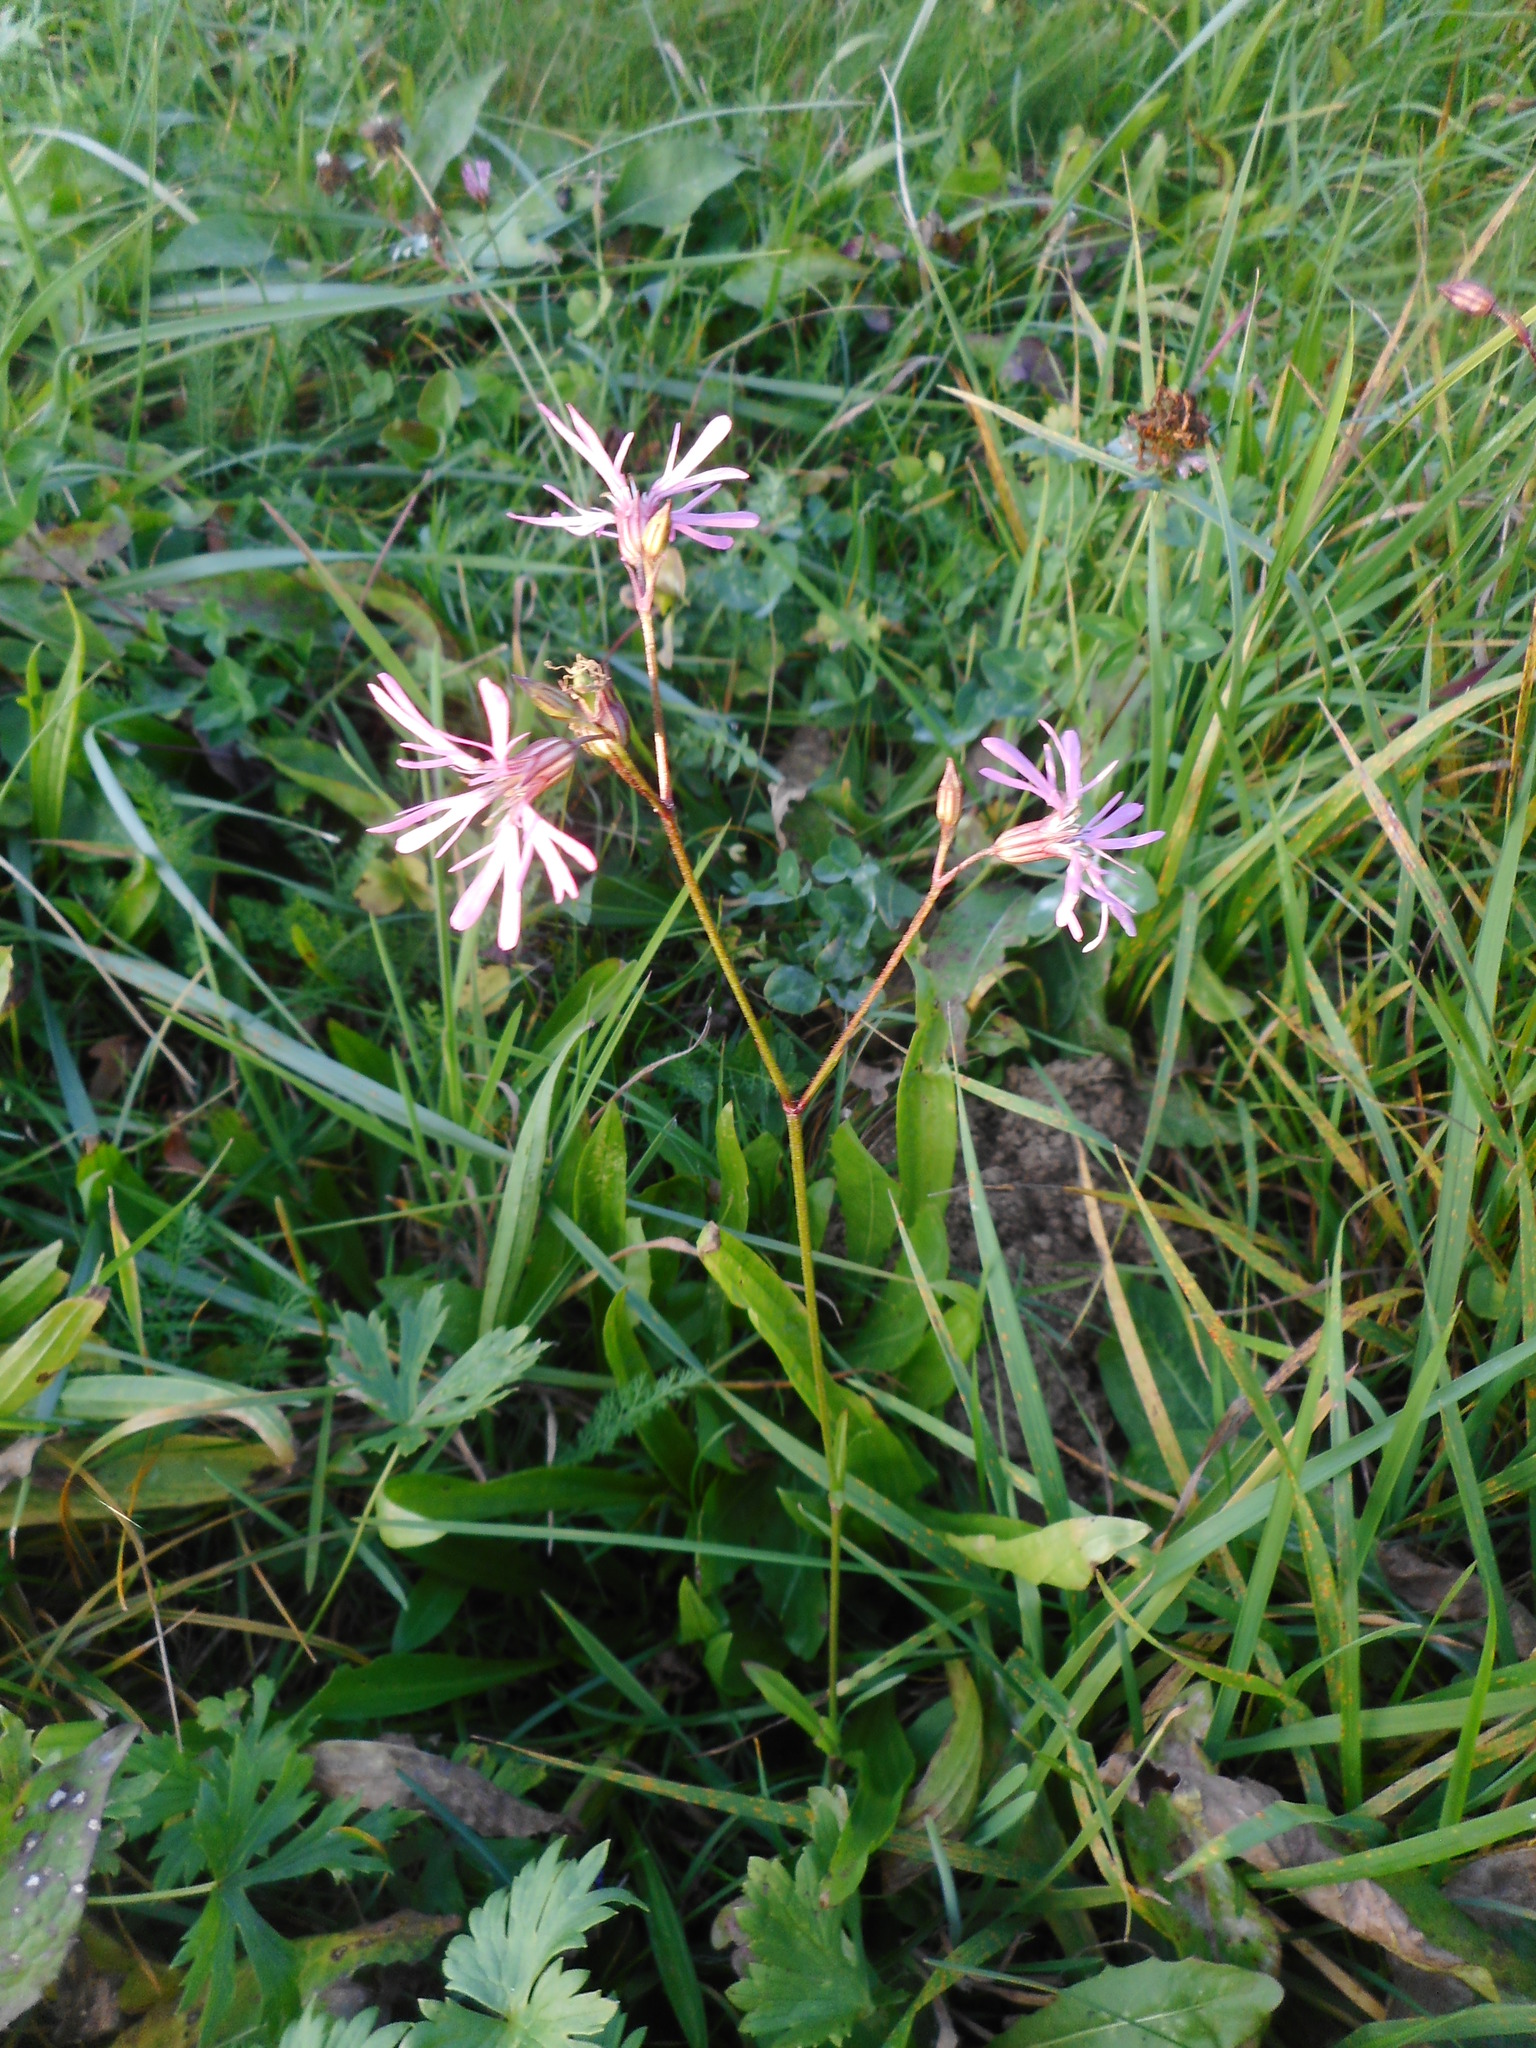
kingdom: Plantae
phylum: Tracheophyta
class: Magnoliopsida
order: Caryophyllales
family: Caryophyllaceae
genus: Silene
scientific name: Silene flos-cuculi
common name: Ragged-robin
